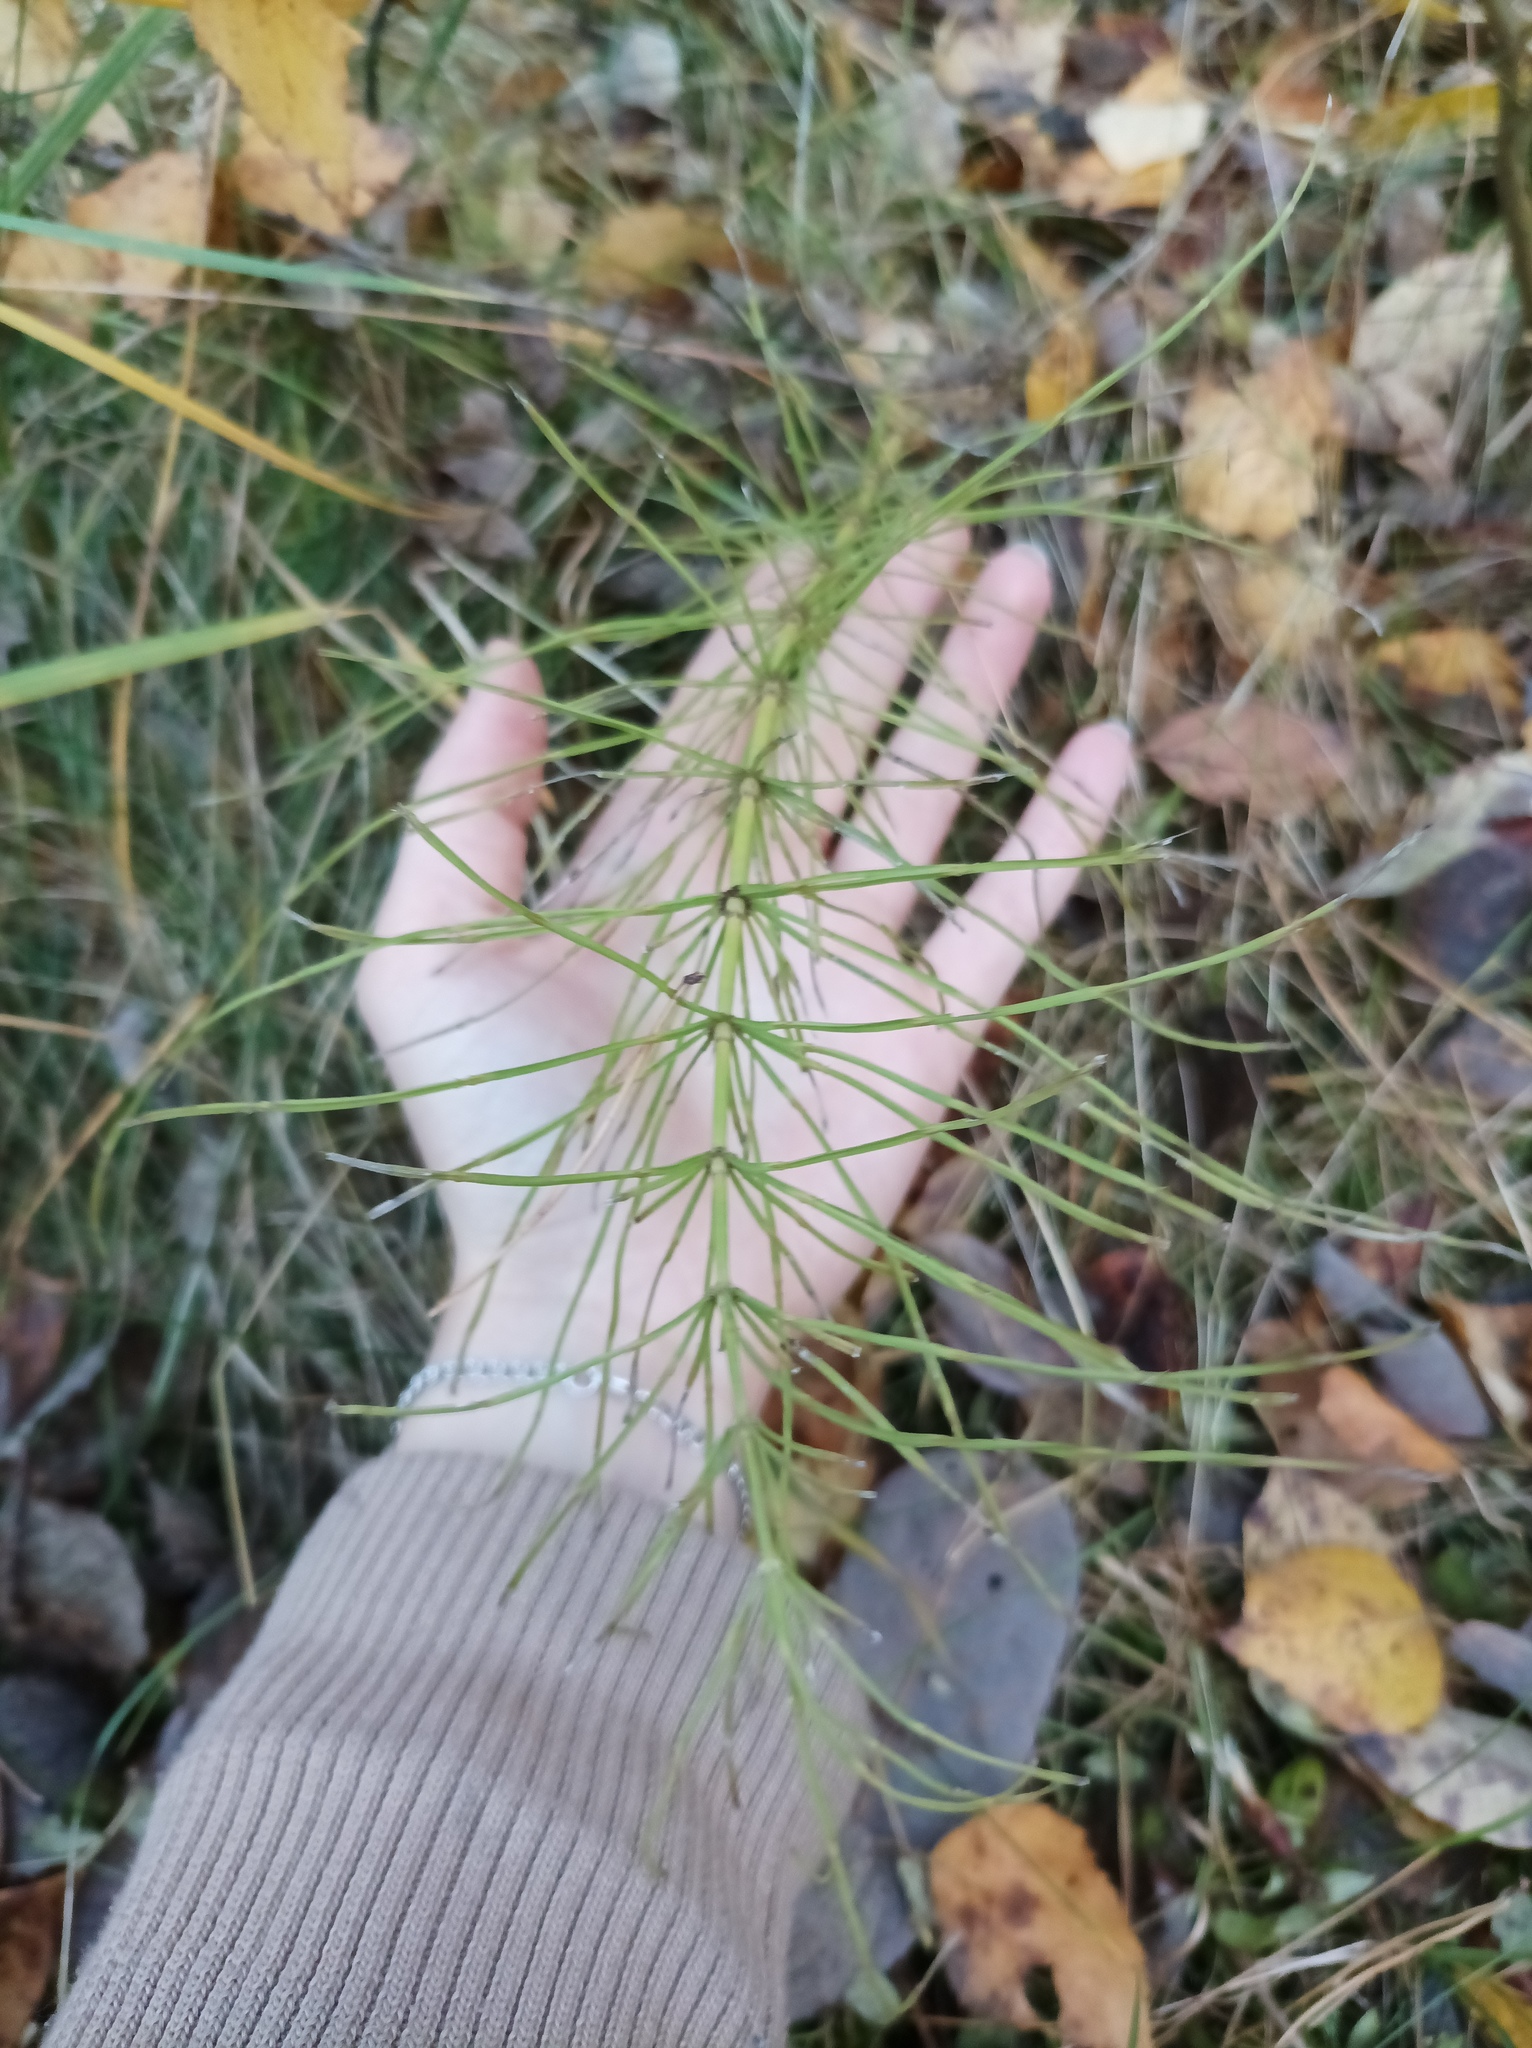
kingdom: Plantae
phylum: Tracheophyta
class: Polypodiopsida
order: Equisetales
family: Equisetaceae
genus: Equisetum
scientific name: Equisetum arvense
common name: Field horsetail
